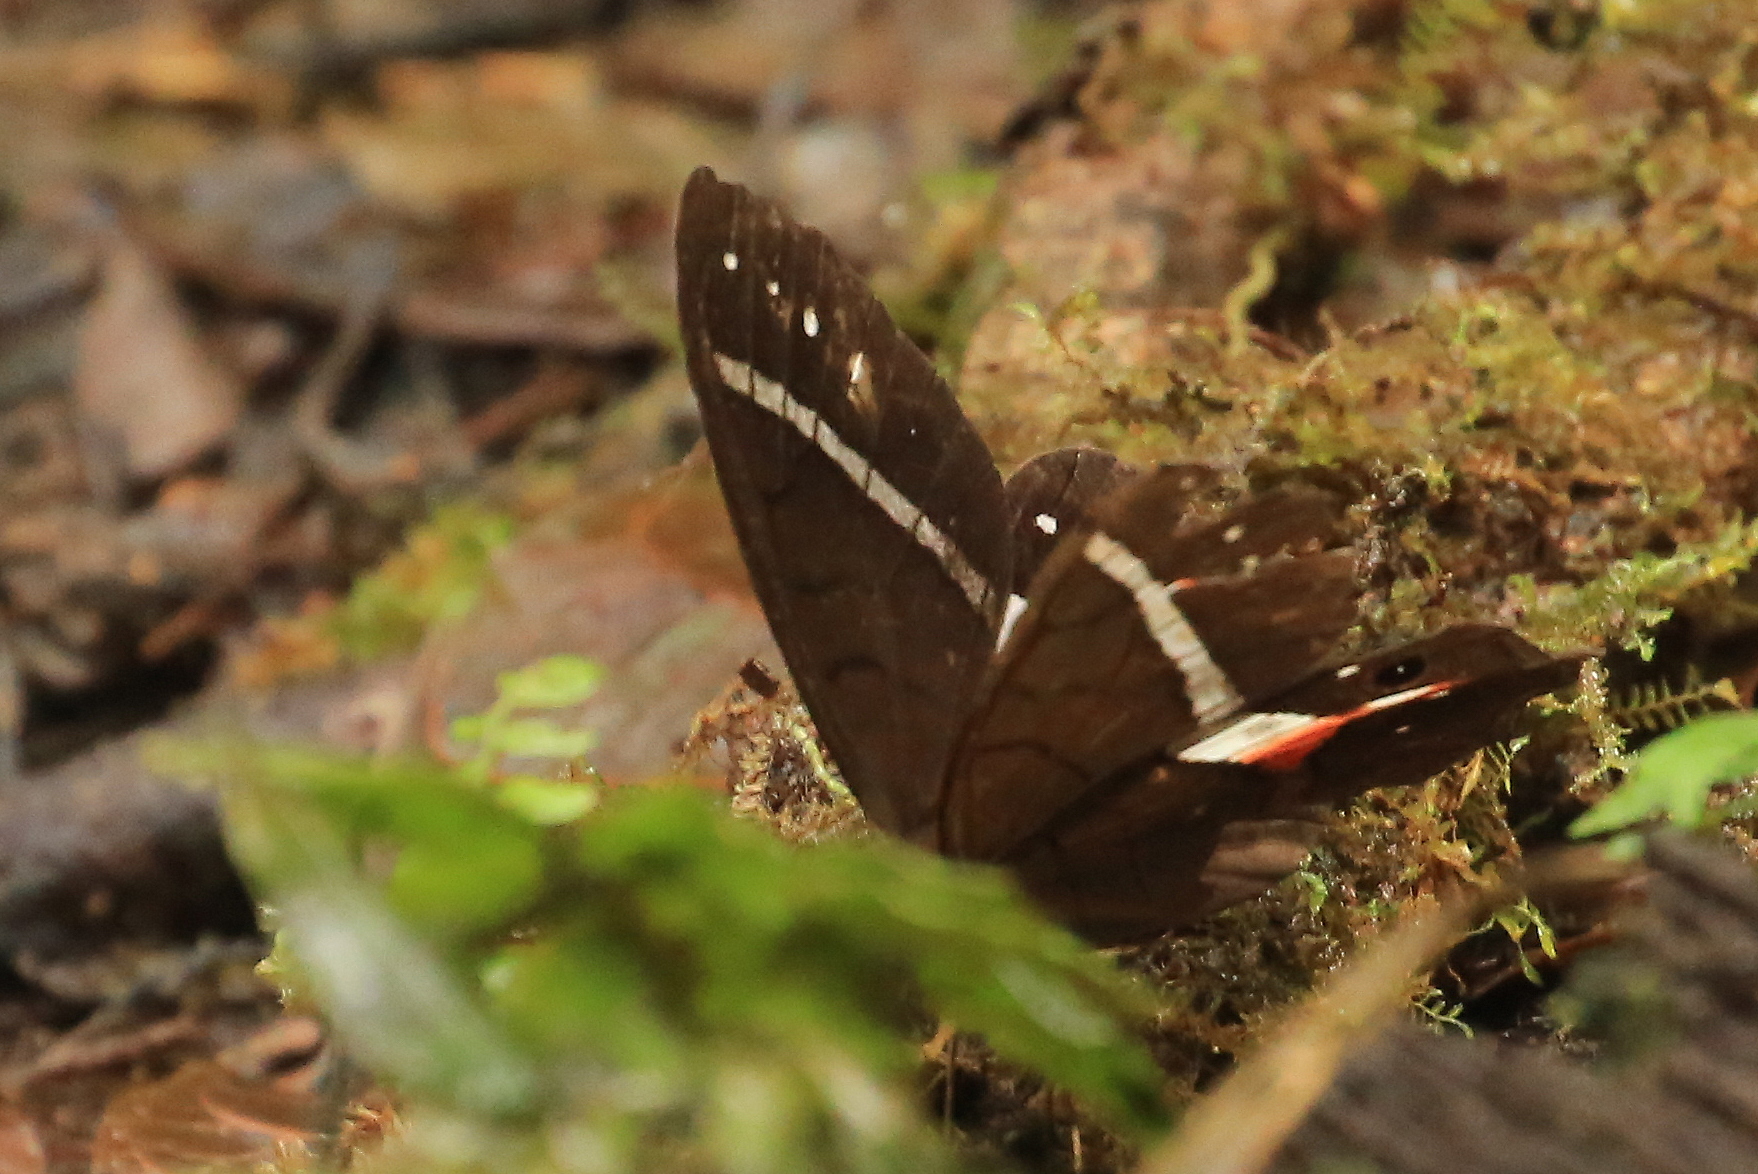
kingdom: Animalia
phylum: Arthropoda
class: Insecta
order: Lepidoptera
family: Nymphalidae
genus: Pierella
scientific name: Pierella helvina
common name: Red-washed satyr
